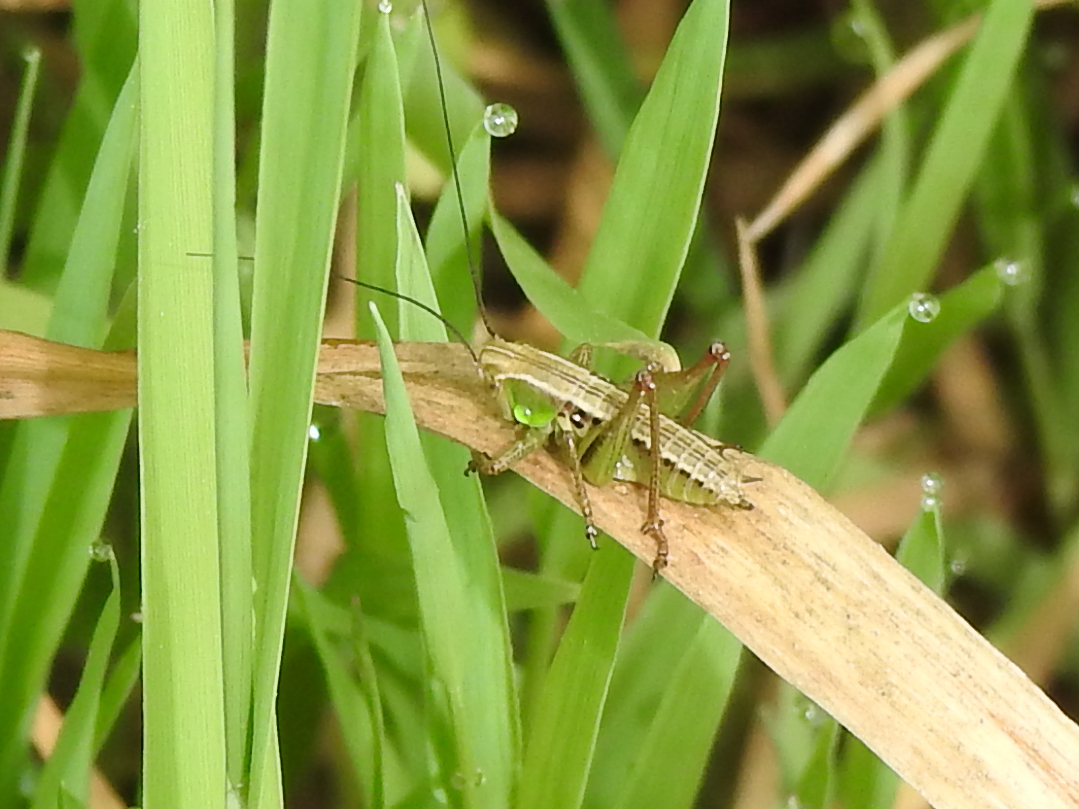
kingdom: Animalia
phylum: Arthropoda
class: Insecta
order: Orthoptera
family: Tettigoniidae
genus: Roeseliana
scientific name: Roeseliana roeselii
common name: Roesel's bush cricket
